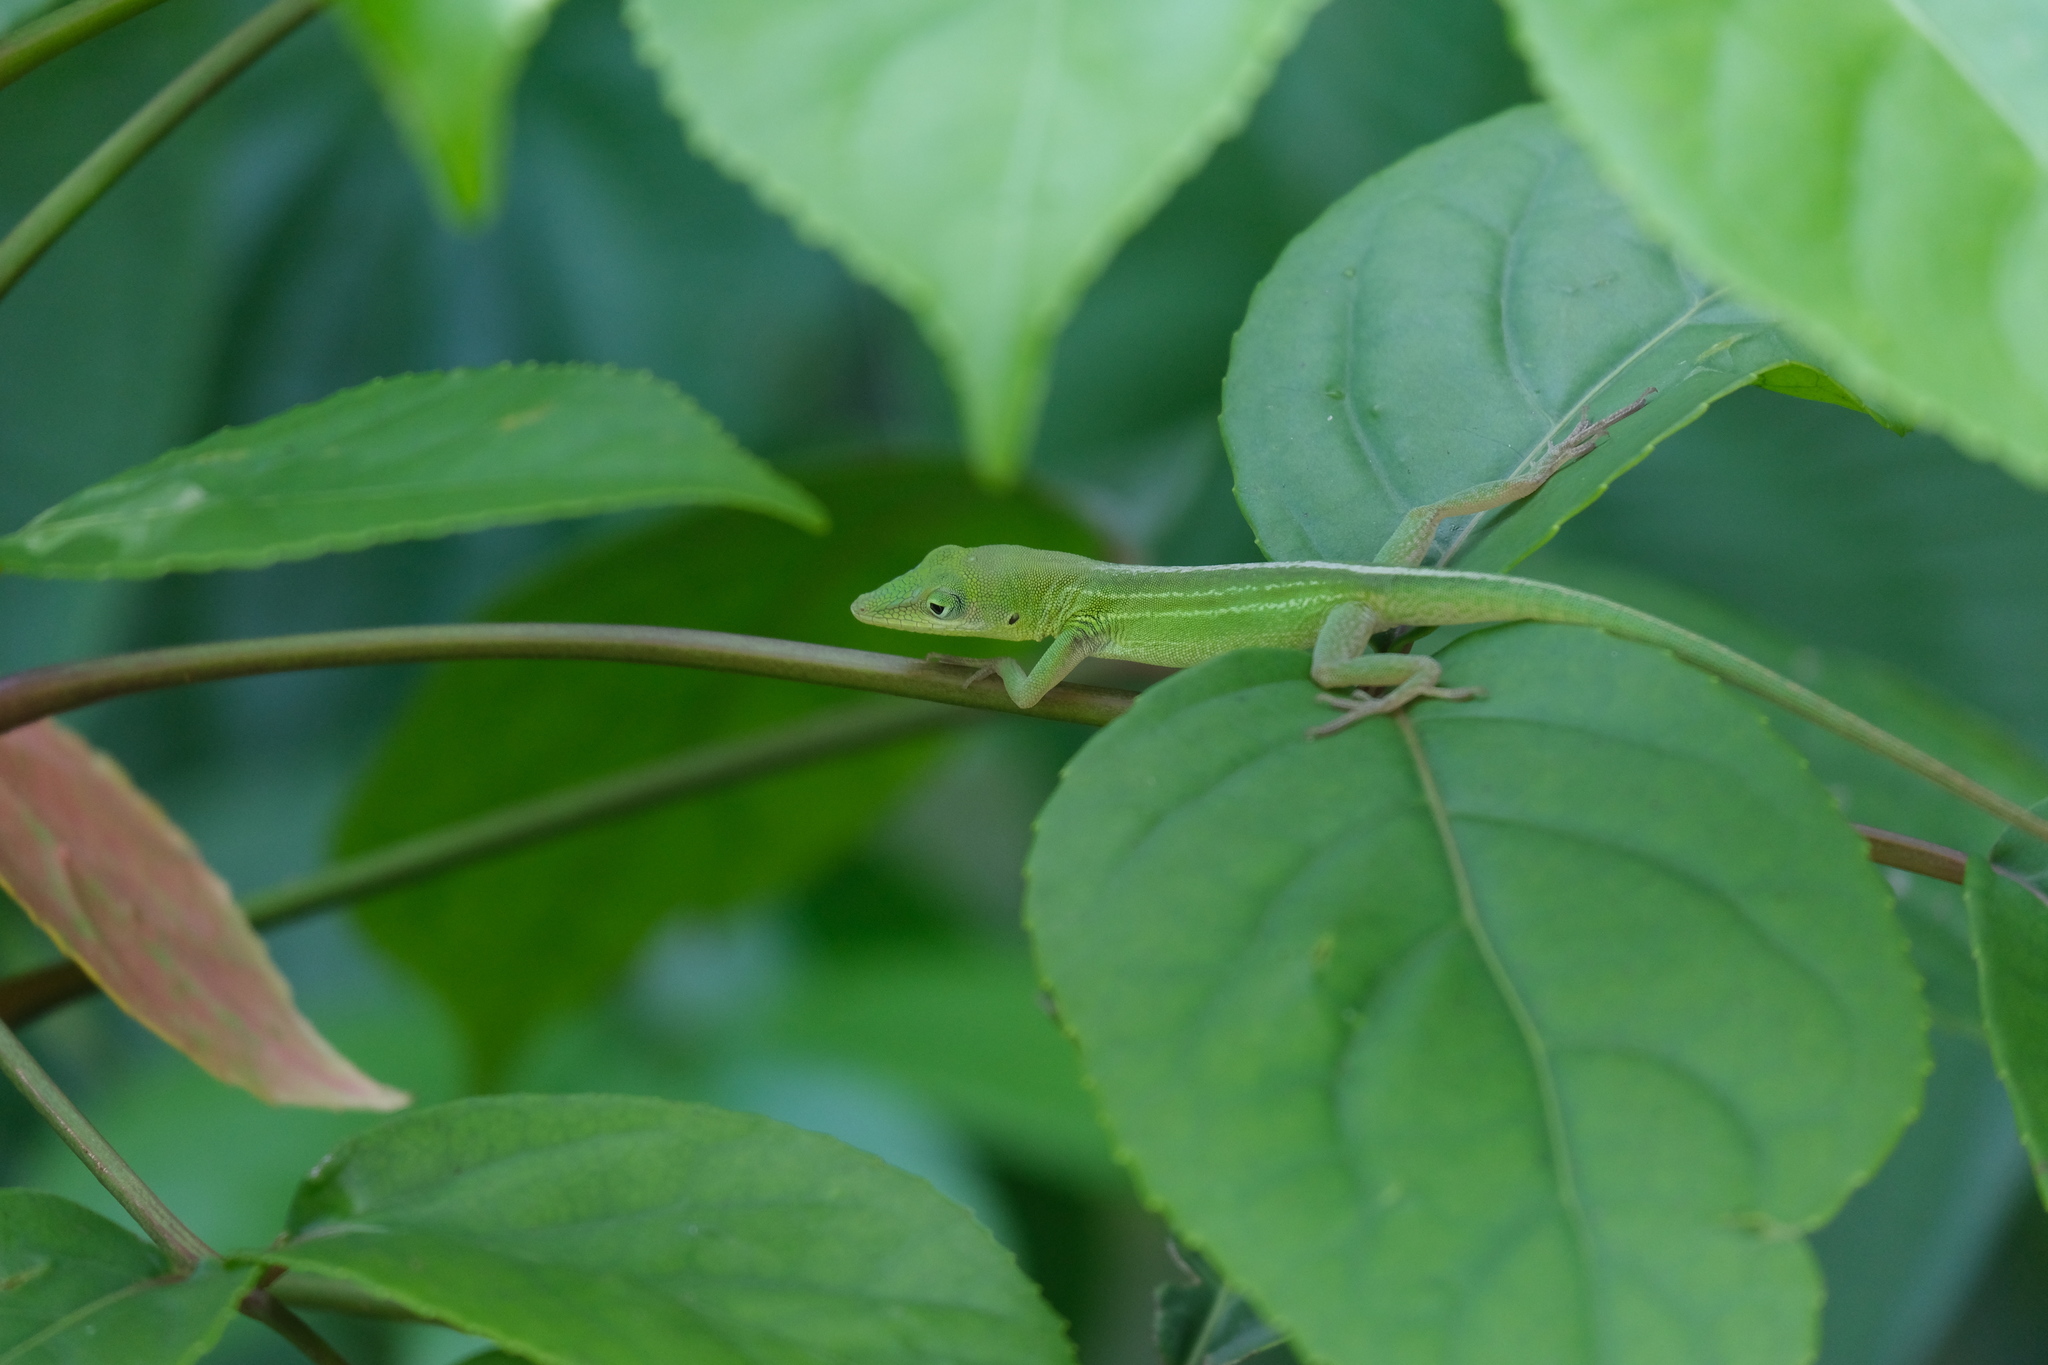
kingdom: Animalia
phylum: Chordata
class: Squamata
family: Dactyloidae
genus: Anolis
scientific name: Anolis chlorocyanus
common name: Hispaniolan green anole
